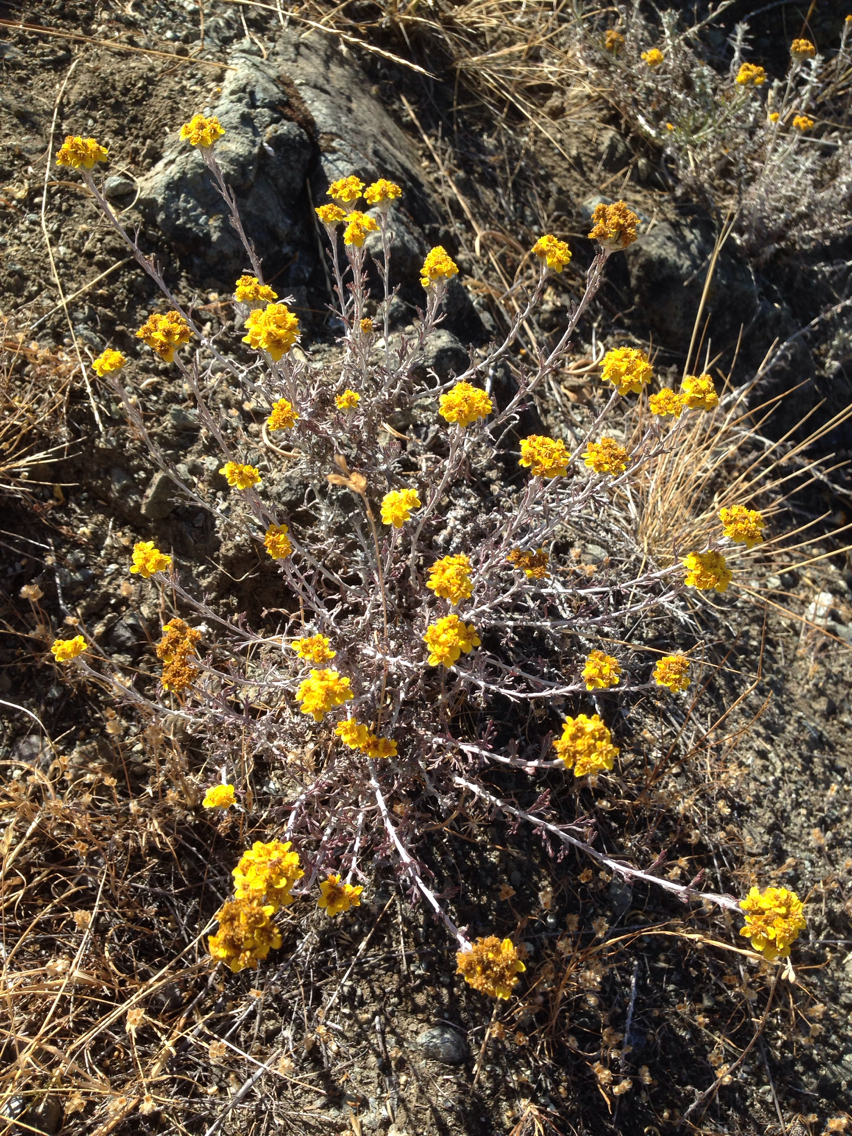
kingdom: Plantae
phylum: Tracheophyta
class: Magnoliopsida
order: Asterales
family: Asteraceae
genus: Eriophyllum
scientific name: Eriophyllum confertiflorum
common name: Golden-yarrow
